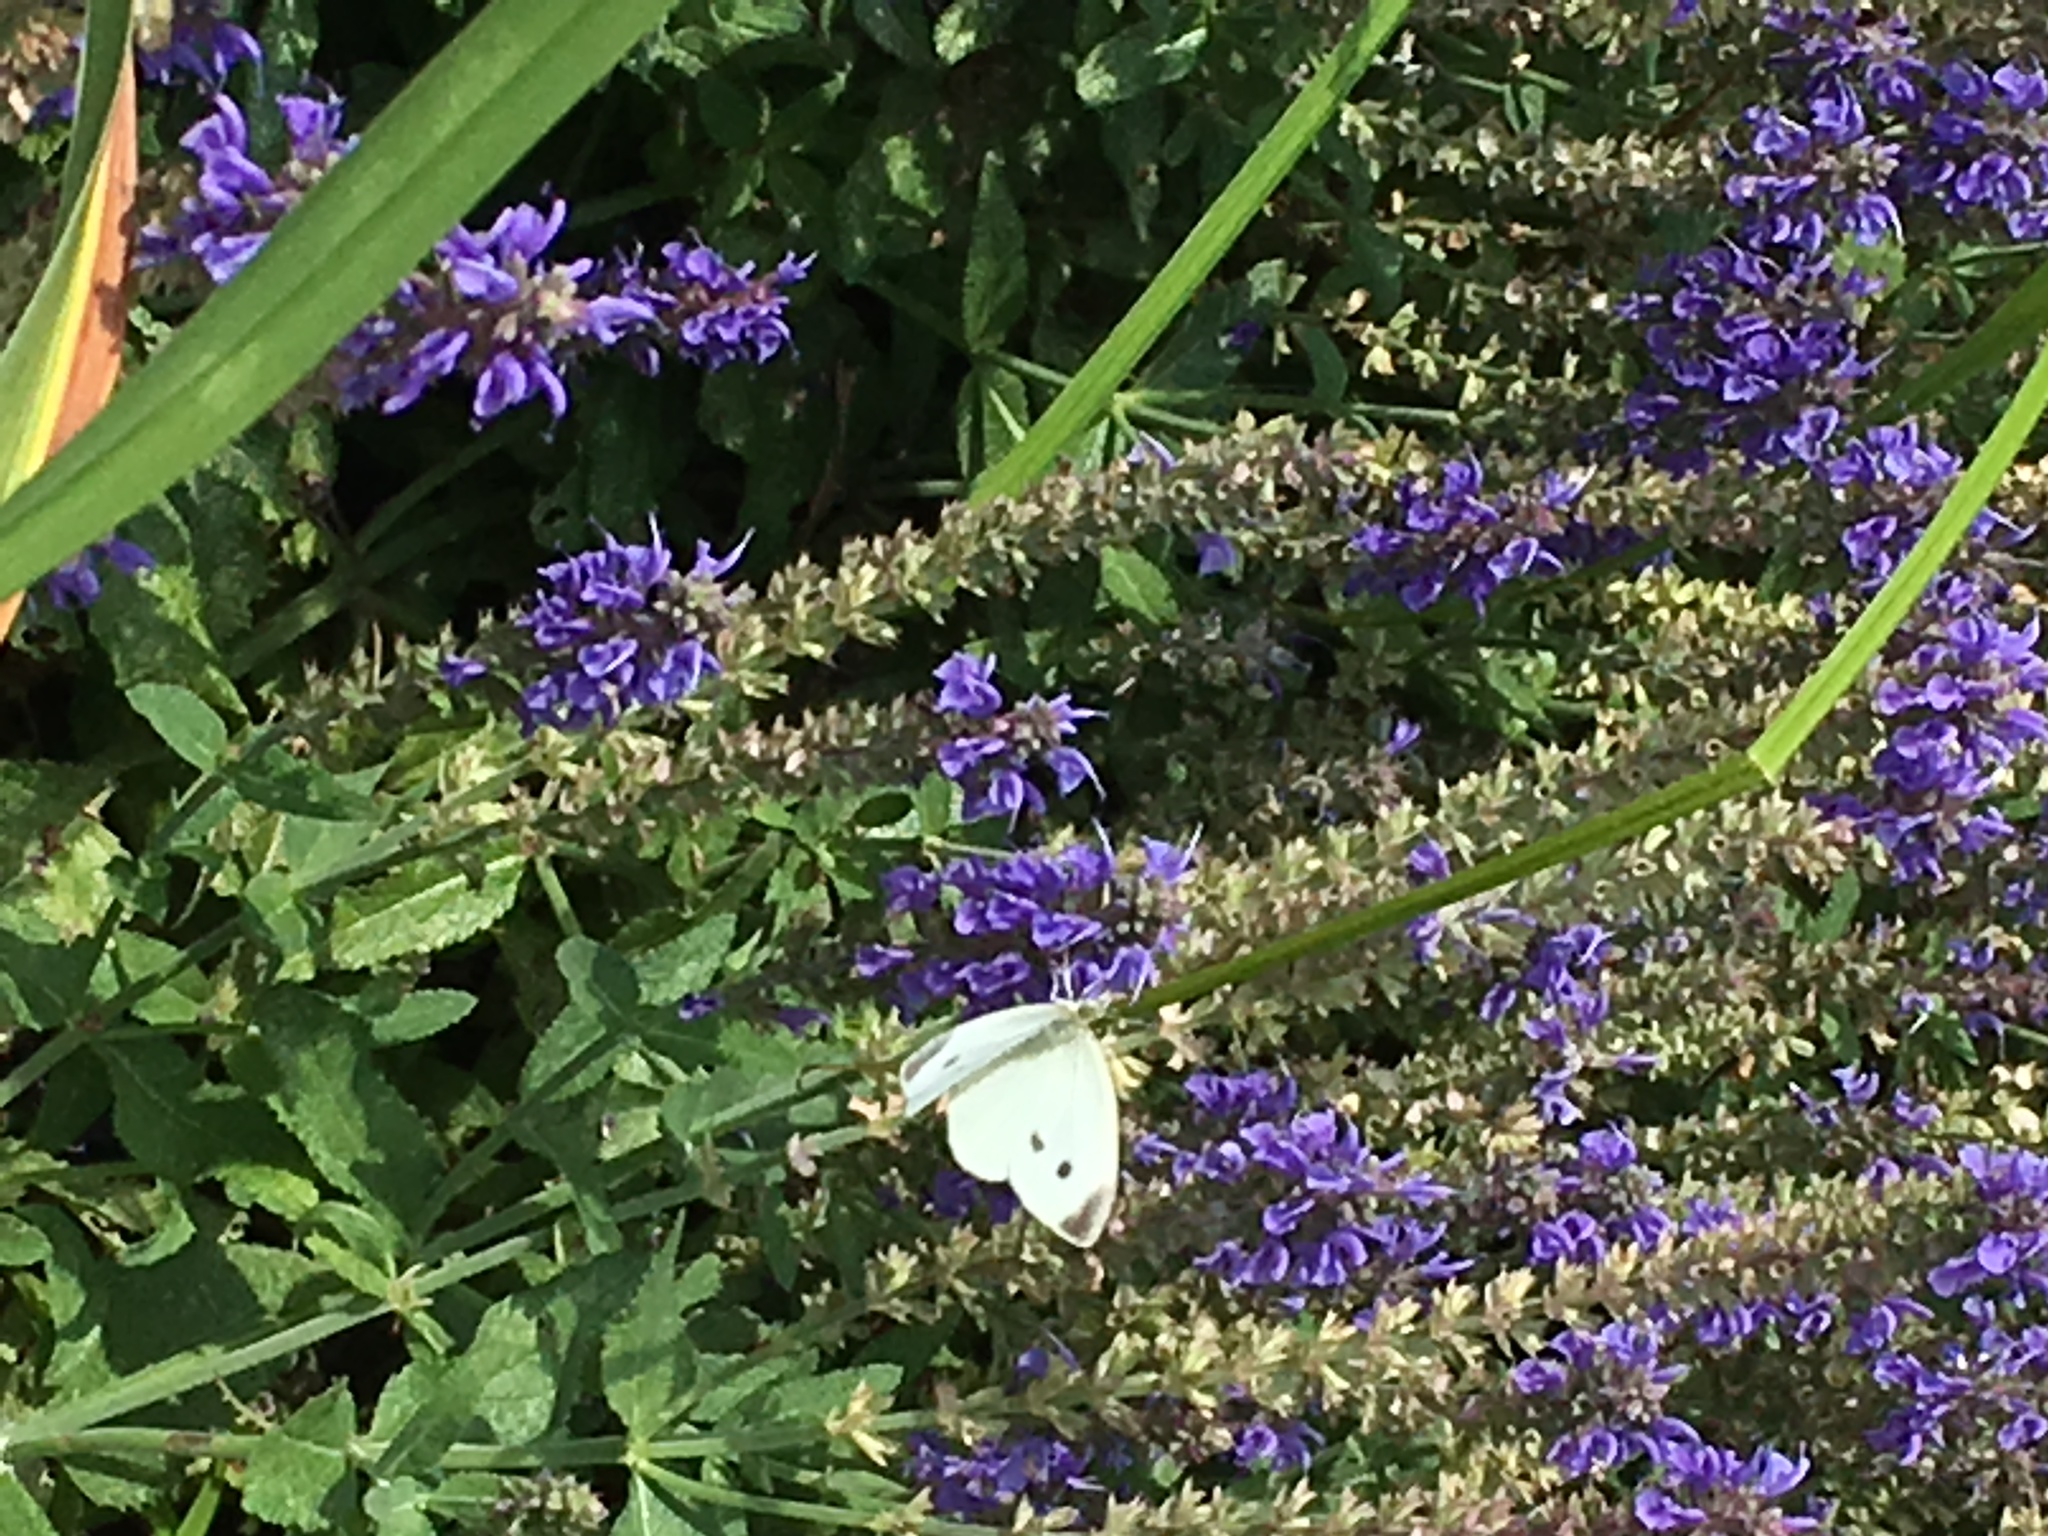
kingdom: Animalia
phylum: Arthropoda
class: Insecta
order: Lepidoptera
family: Pieridae
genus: Pieris
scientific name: Pieris rapae
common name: Small white
